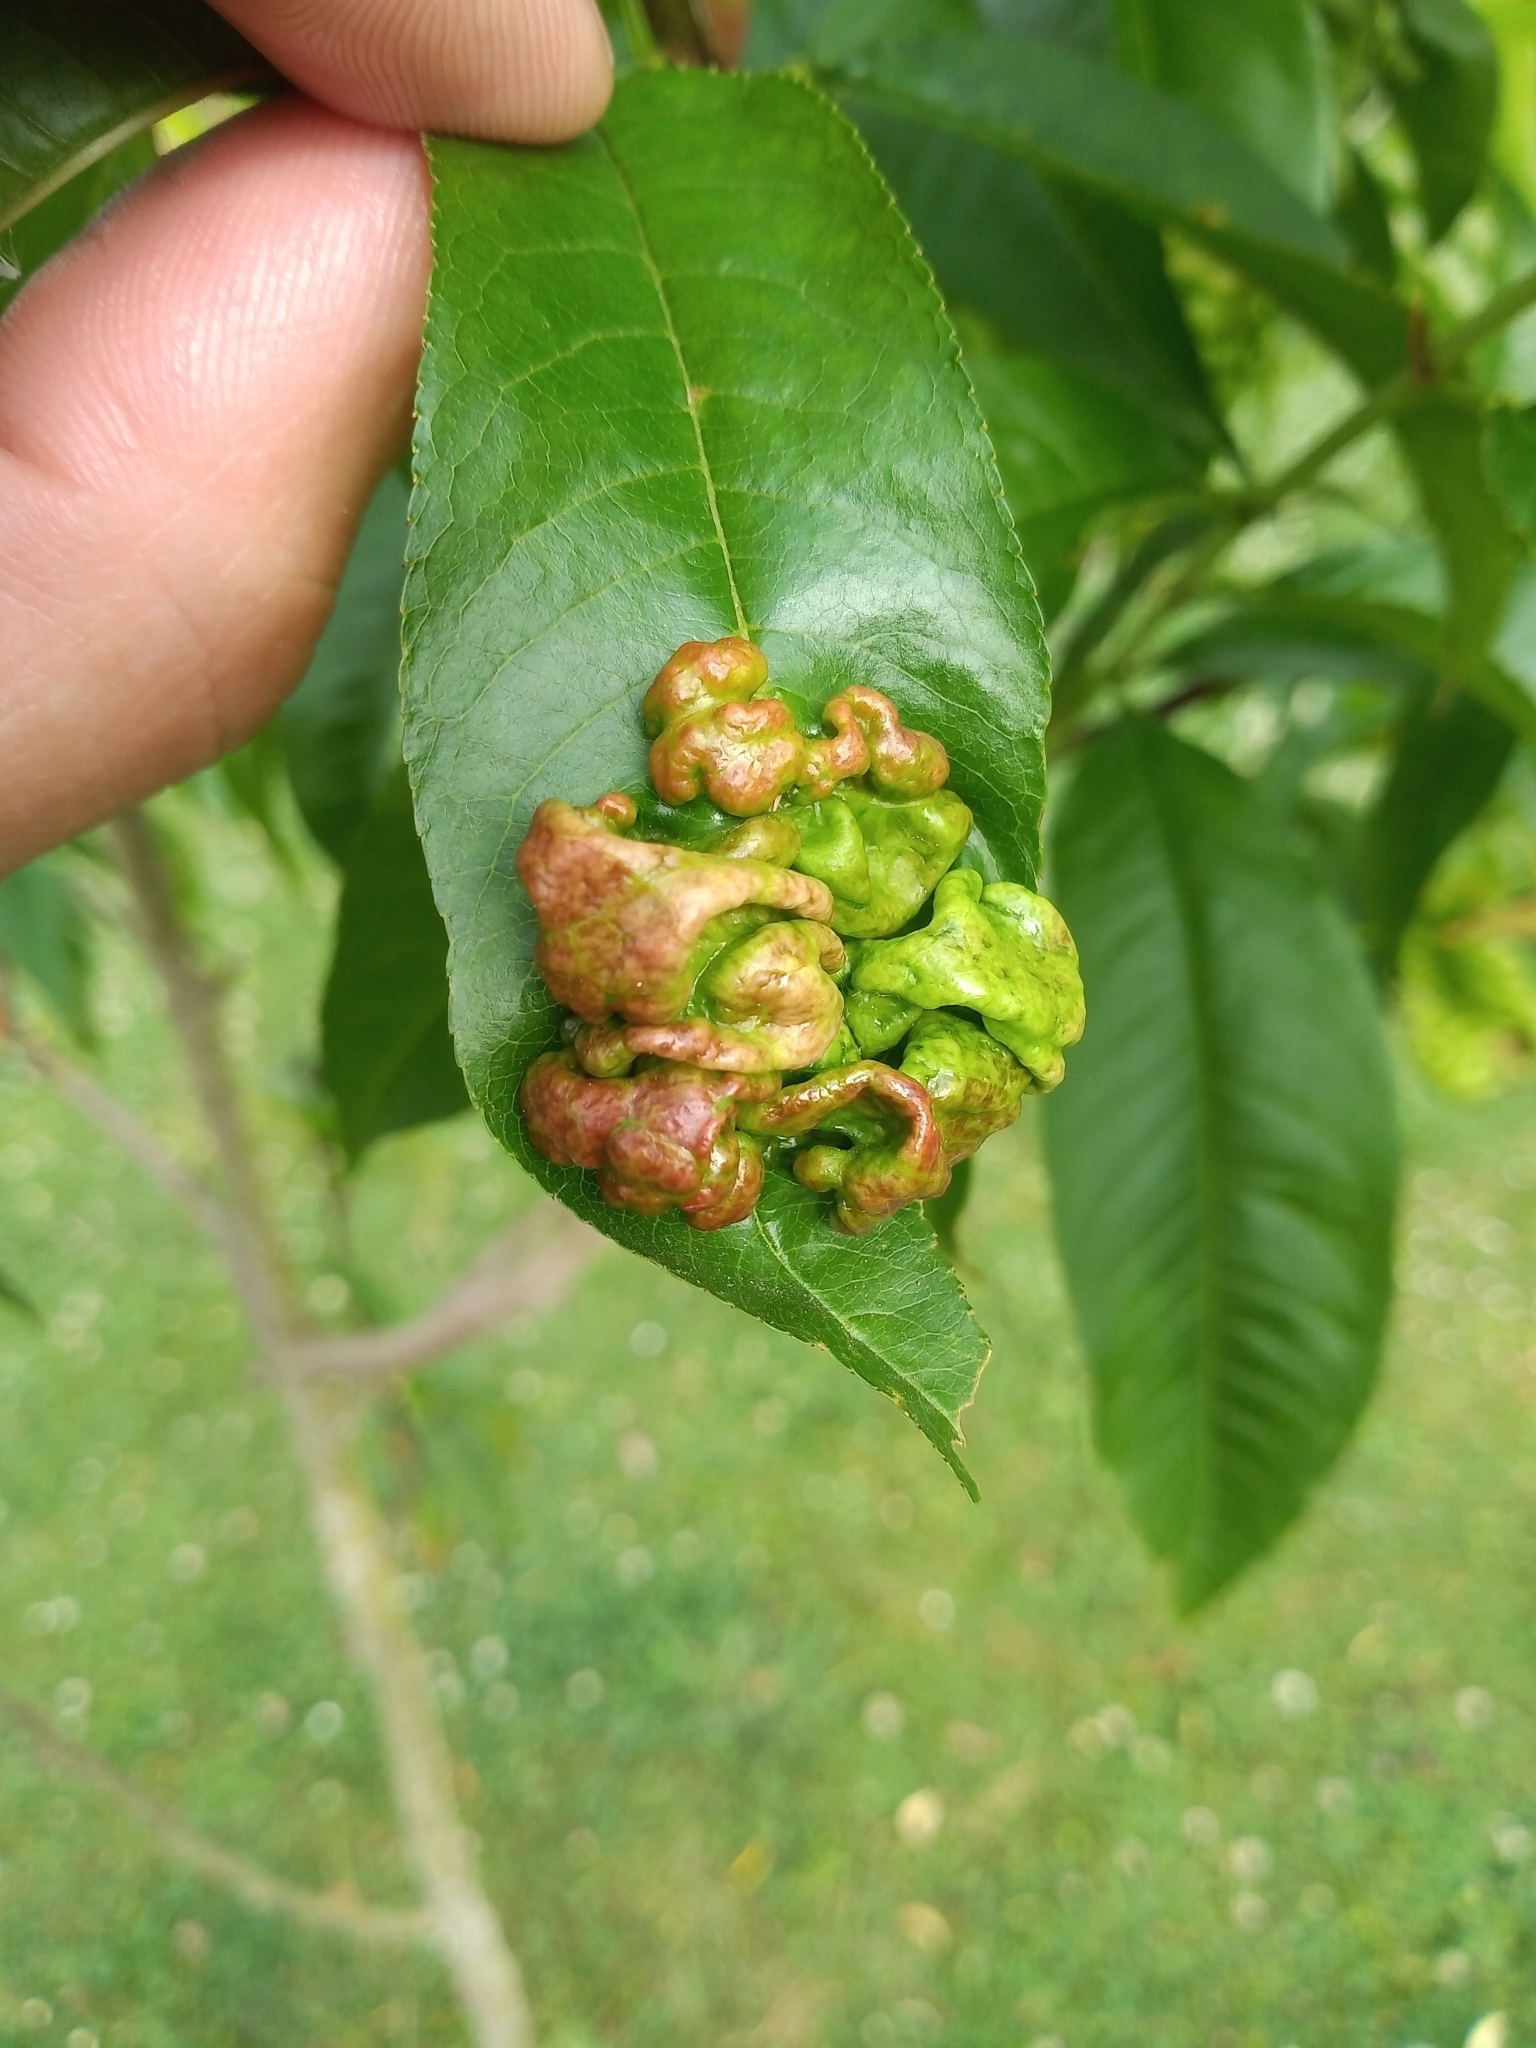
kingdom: Fungi
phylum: Ascomycota
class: Taphrinomycetes
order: Taphrinales
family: Taphrinaceae
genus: Taphrina
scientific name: Taphrina deformans
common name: Peach leaf curl
